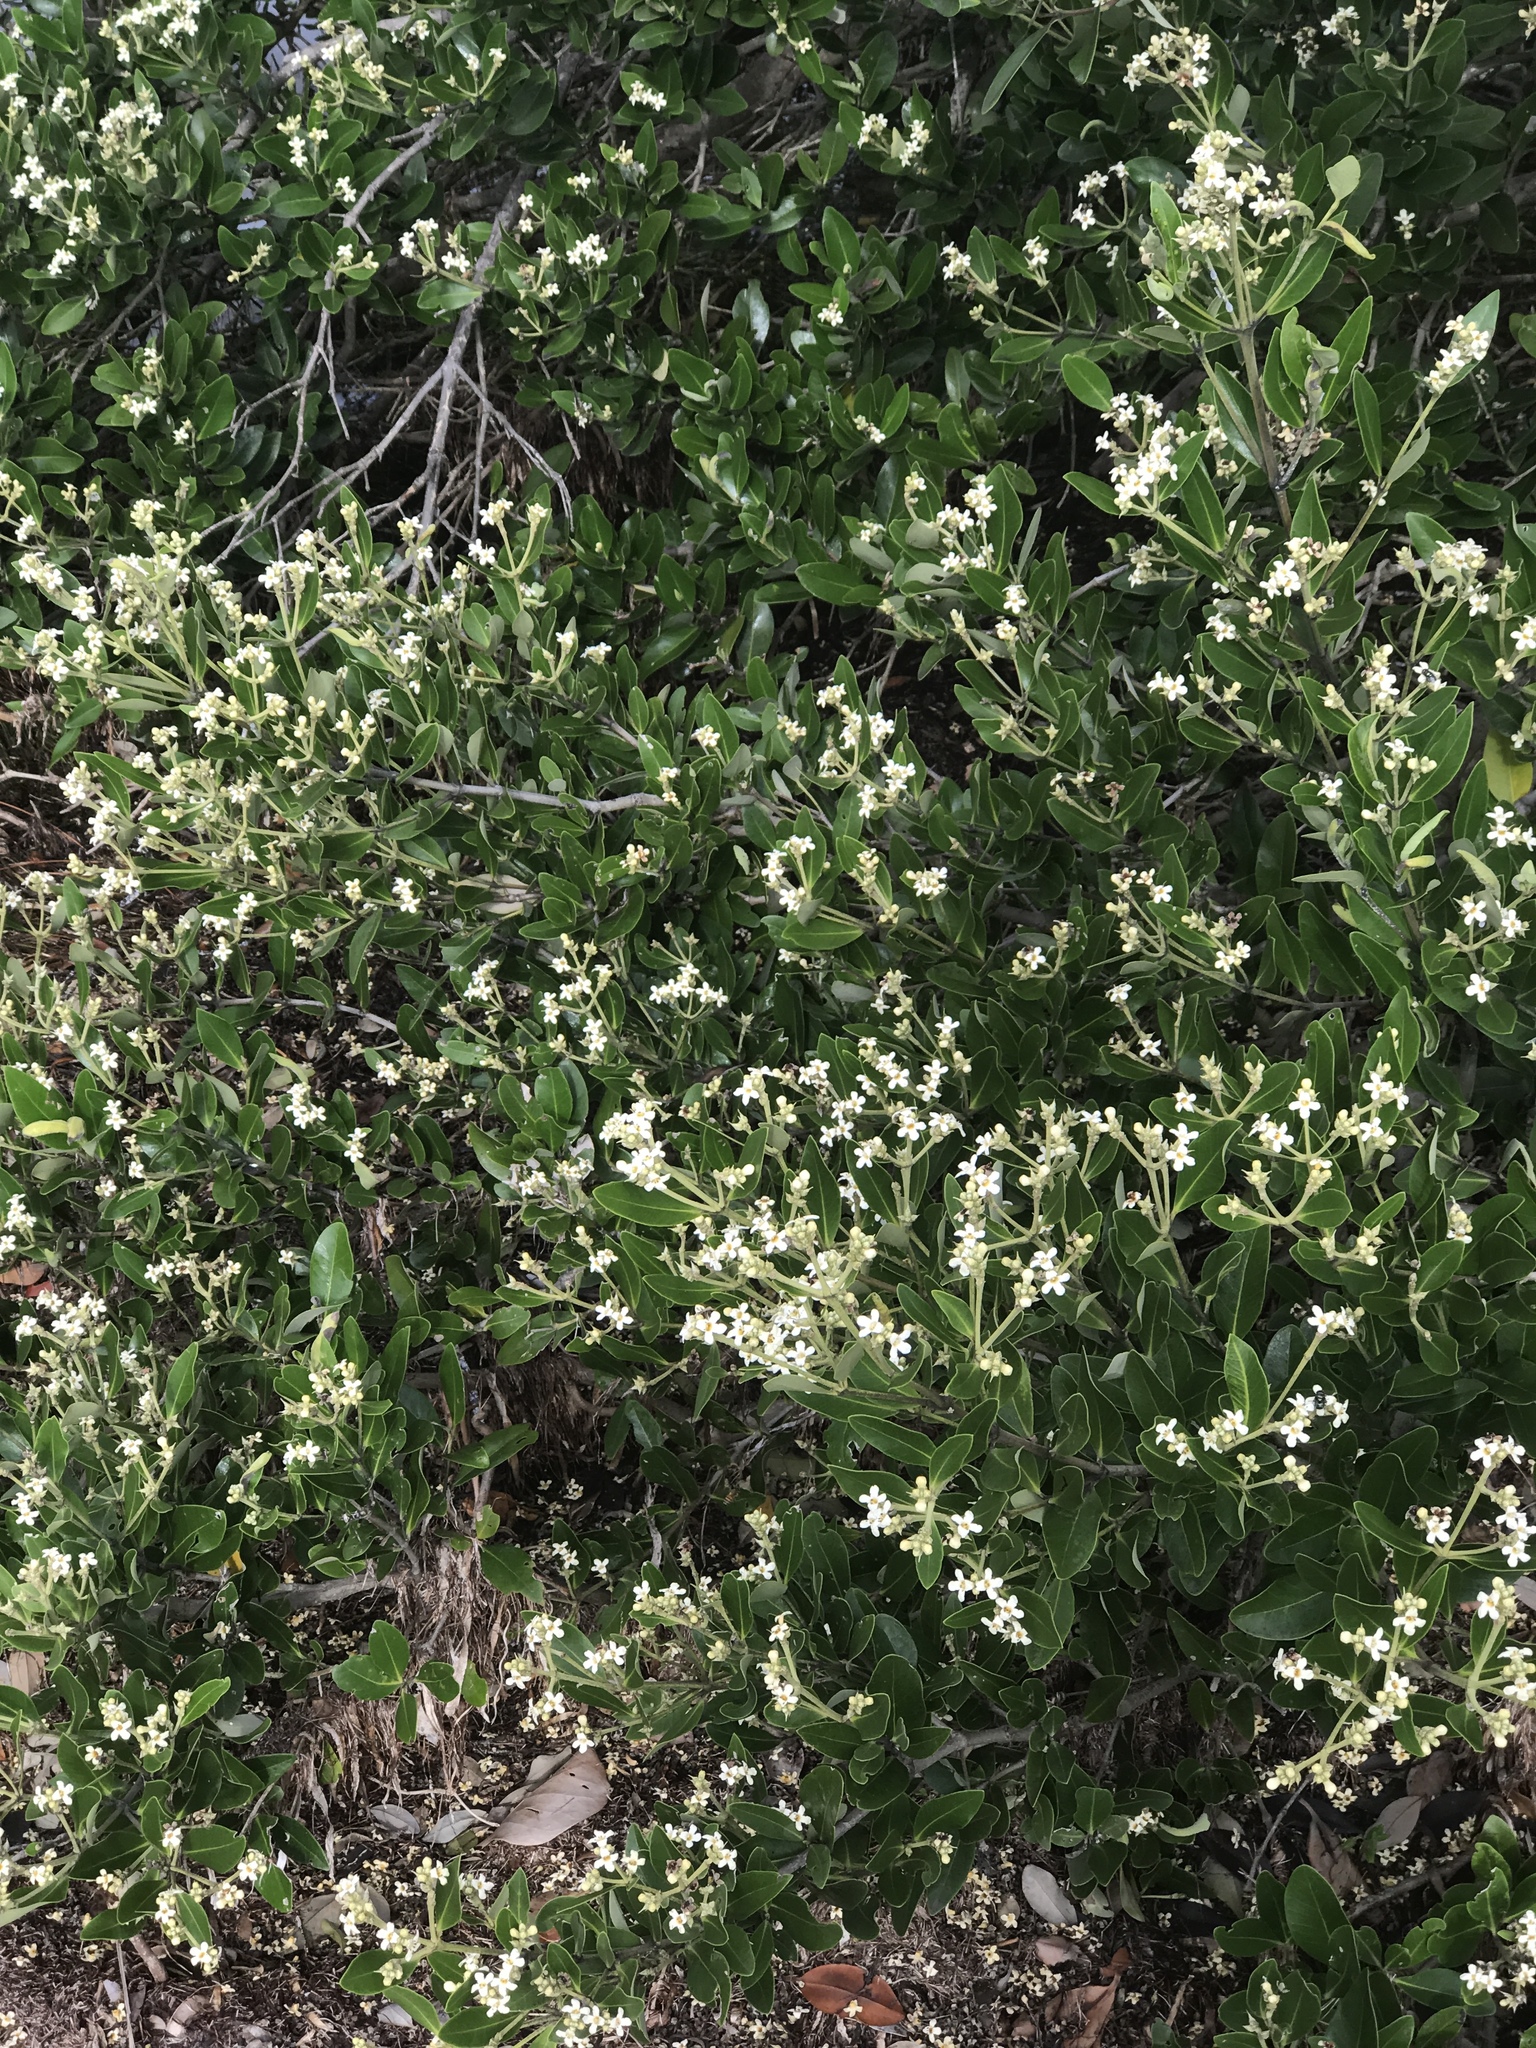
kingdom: Plantae
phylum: Tracheophyta
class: Magnoliopsida
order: Lamiales
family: Acanthaceae
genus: Avicennia
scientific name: Avicennia germinans
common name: Black mangrove
